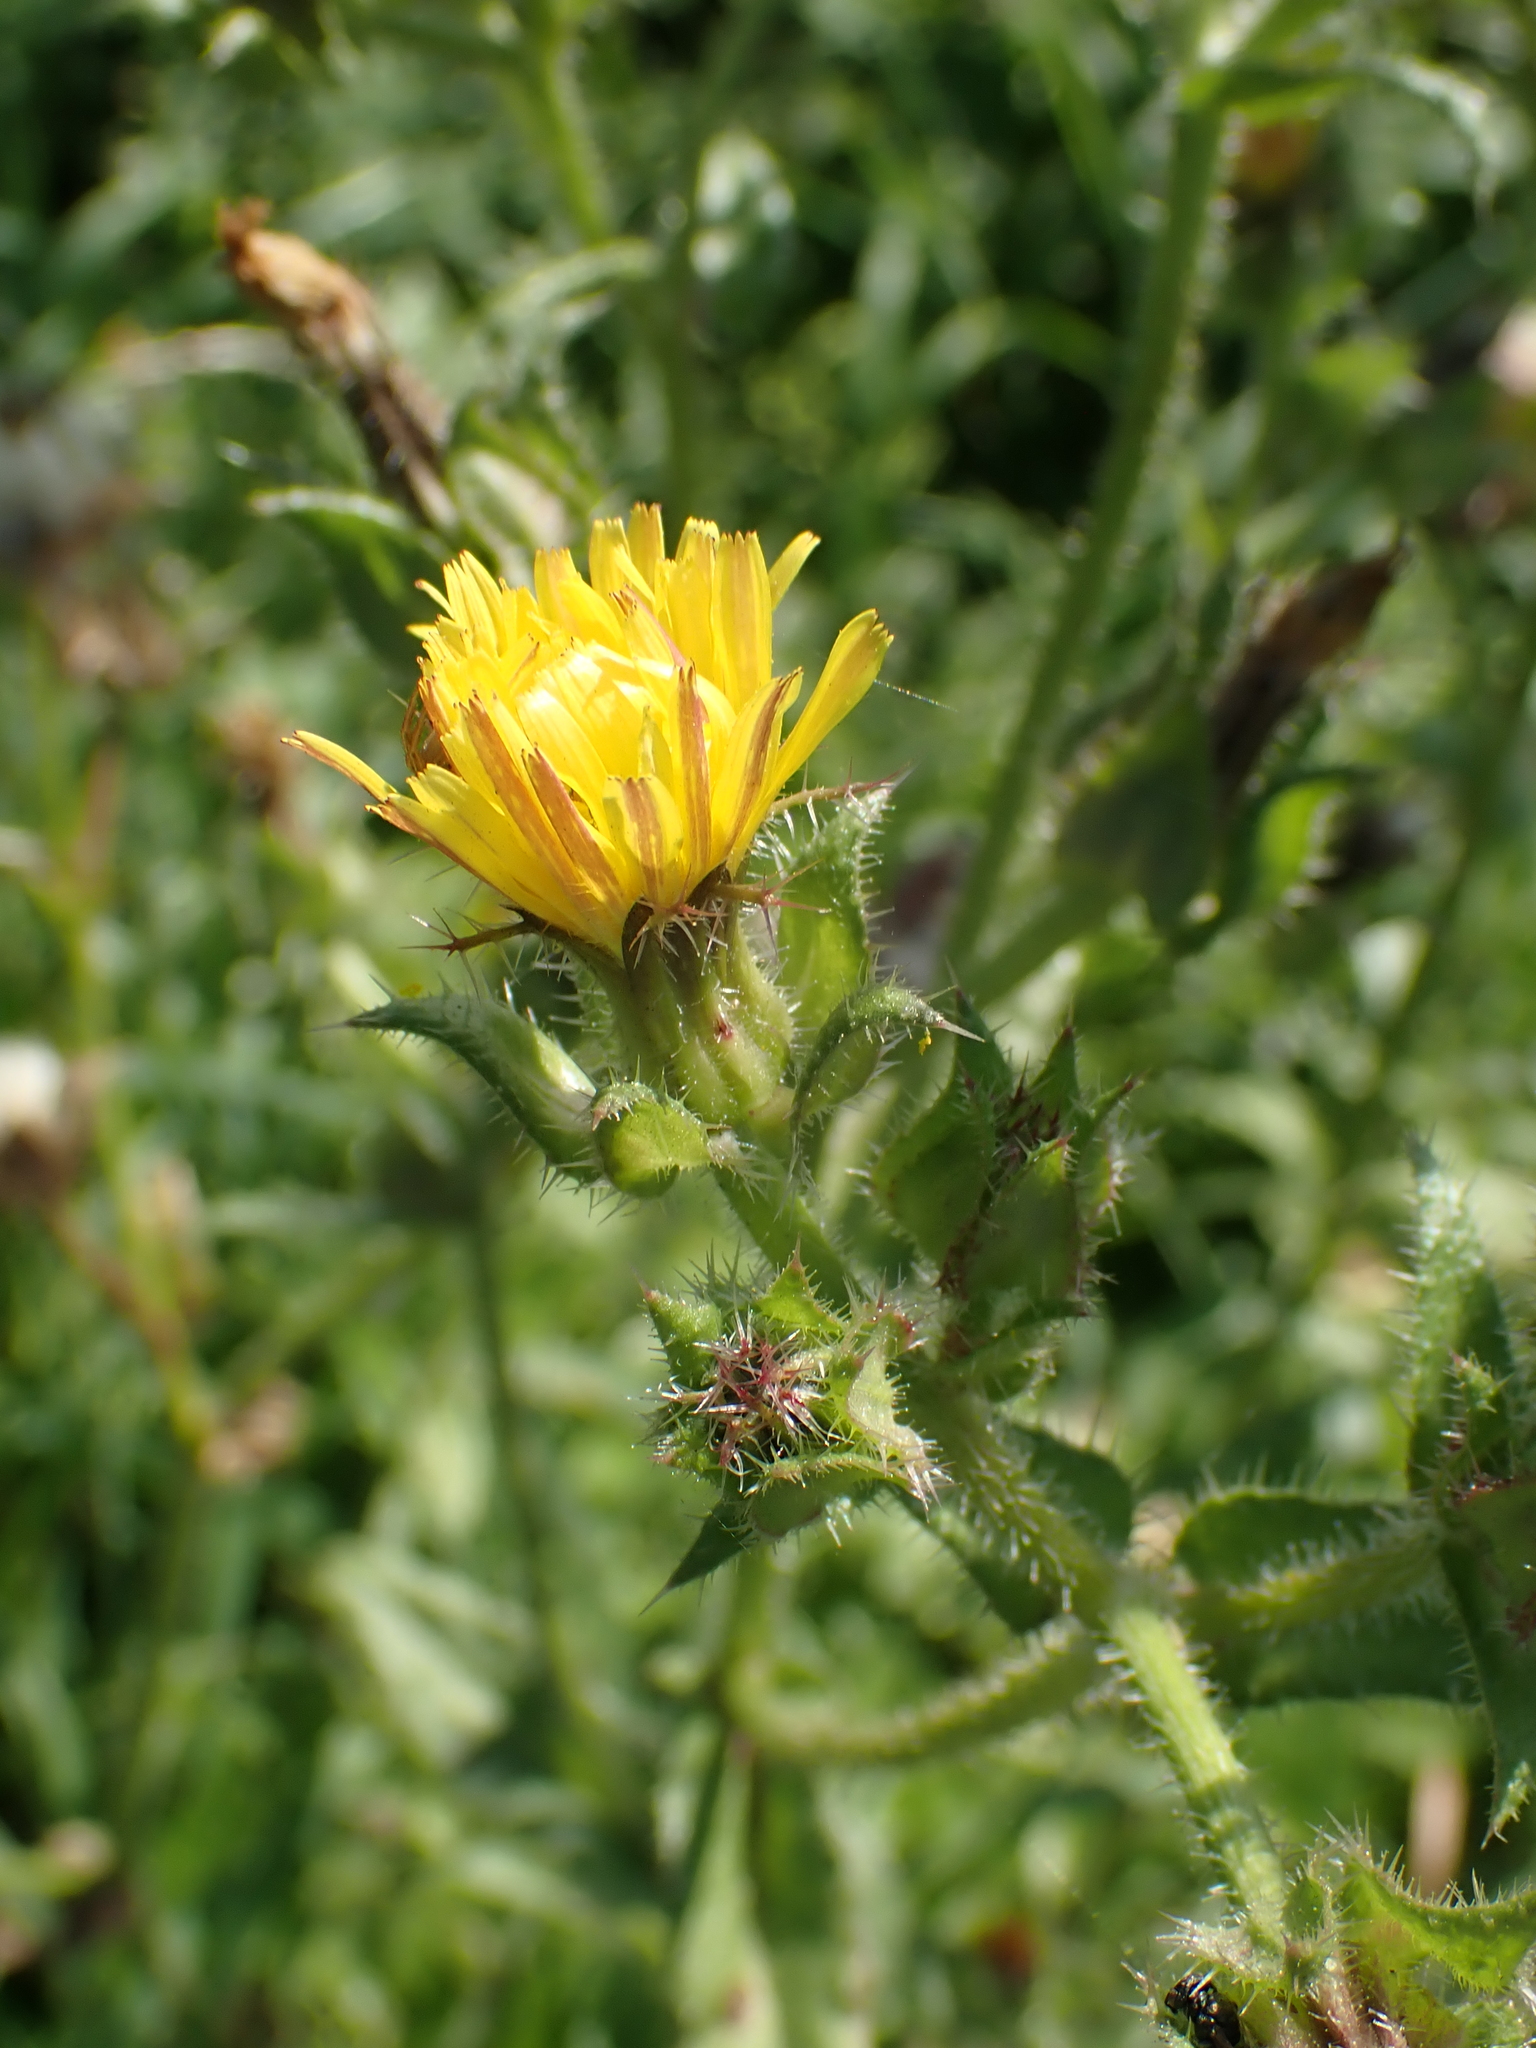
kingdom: Plantae
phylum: Tracheophyta
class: Magnoliopsida
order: Asterales
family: Asteraceae
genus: Helminthotheca
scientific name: Helminthotheca echioides
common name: Ox-tongue
